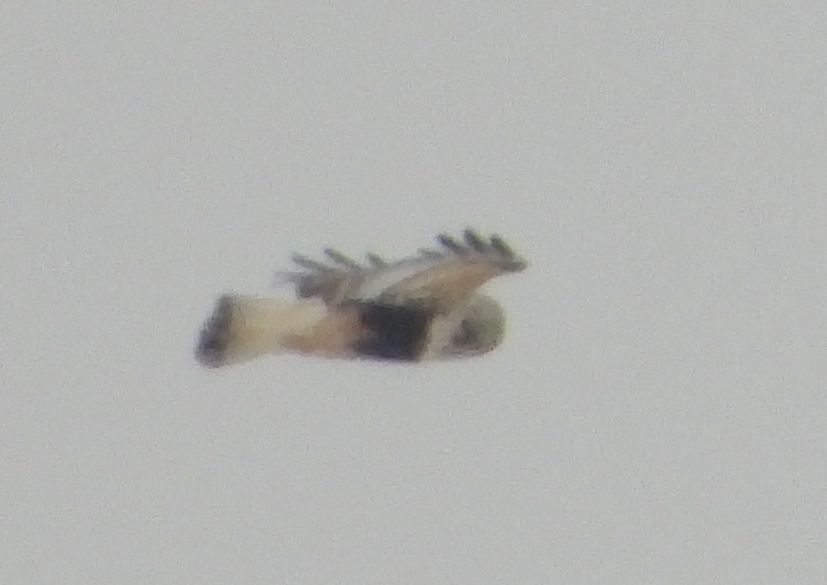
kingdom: Animalia
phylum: Chordata
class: Aves
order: Accipitriformes
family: Accipitridae
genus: Buteo
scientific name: Buteo lagopus
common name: Rough-legged buzzard
